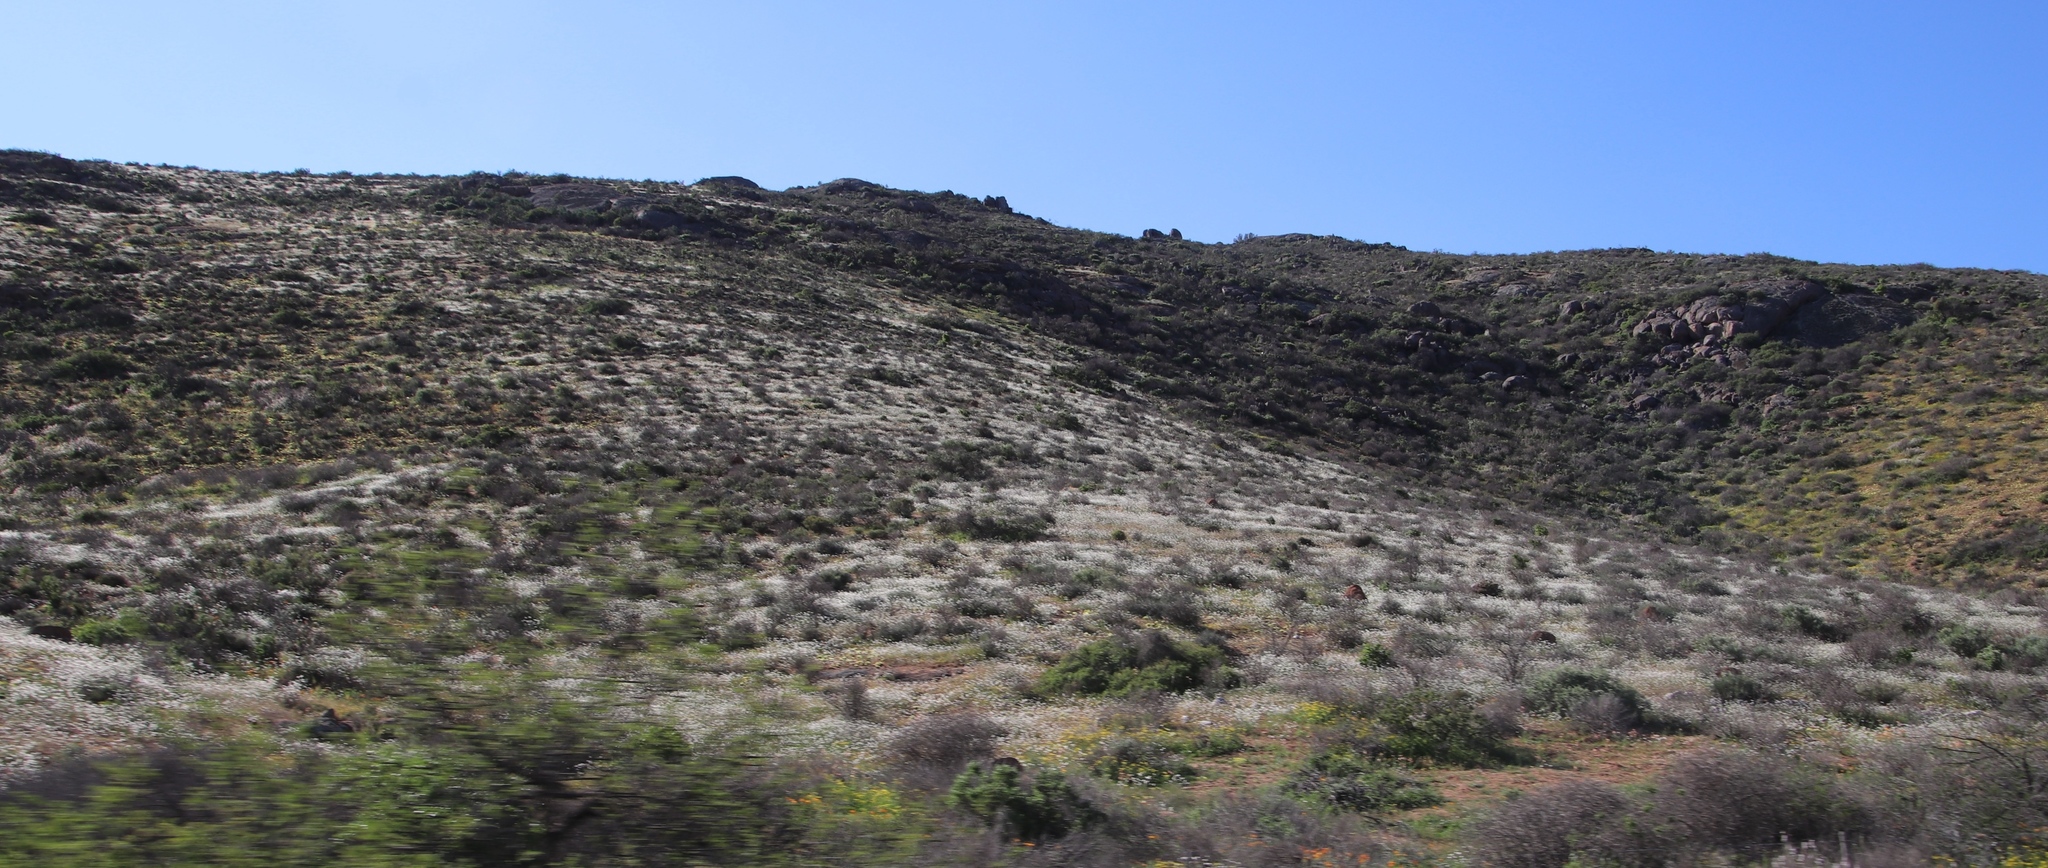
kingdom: Plantae
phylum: Tracheophyta
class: Magnoliopsida
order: Brassicales
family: Brassicaceae
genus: Heliophila
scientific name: Heliophila variabilis
